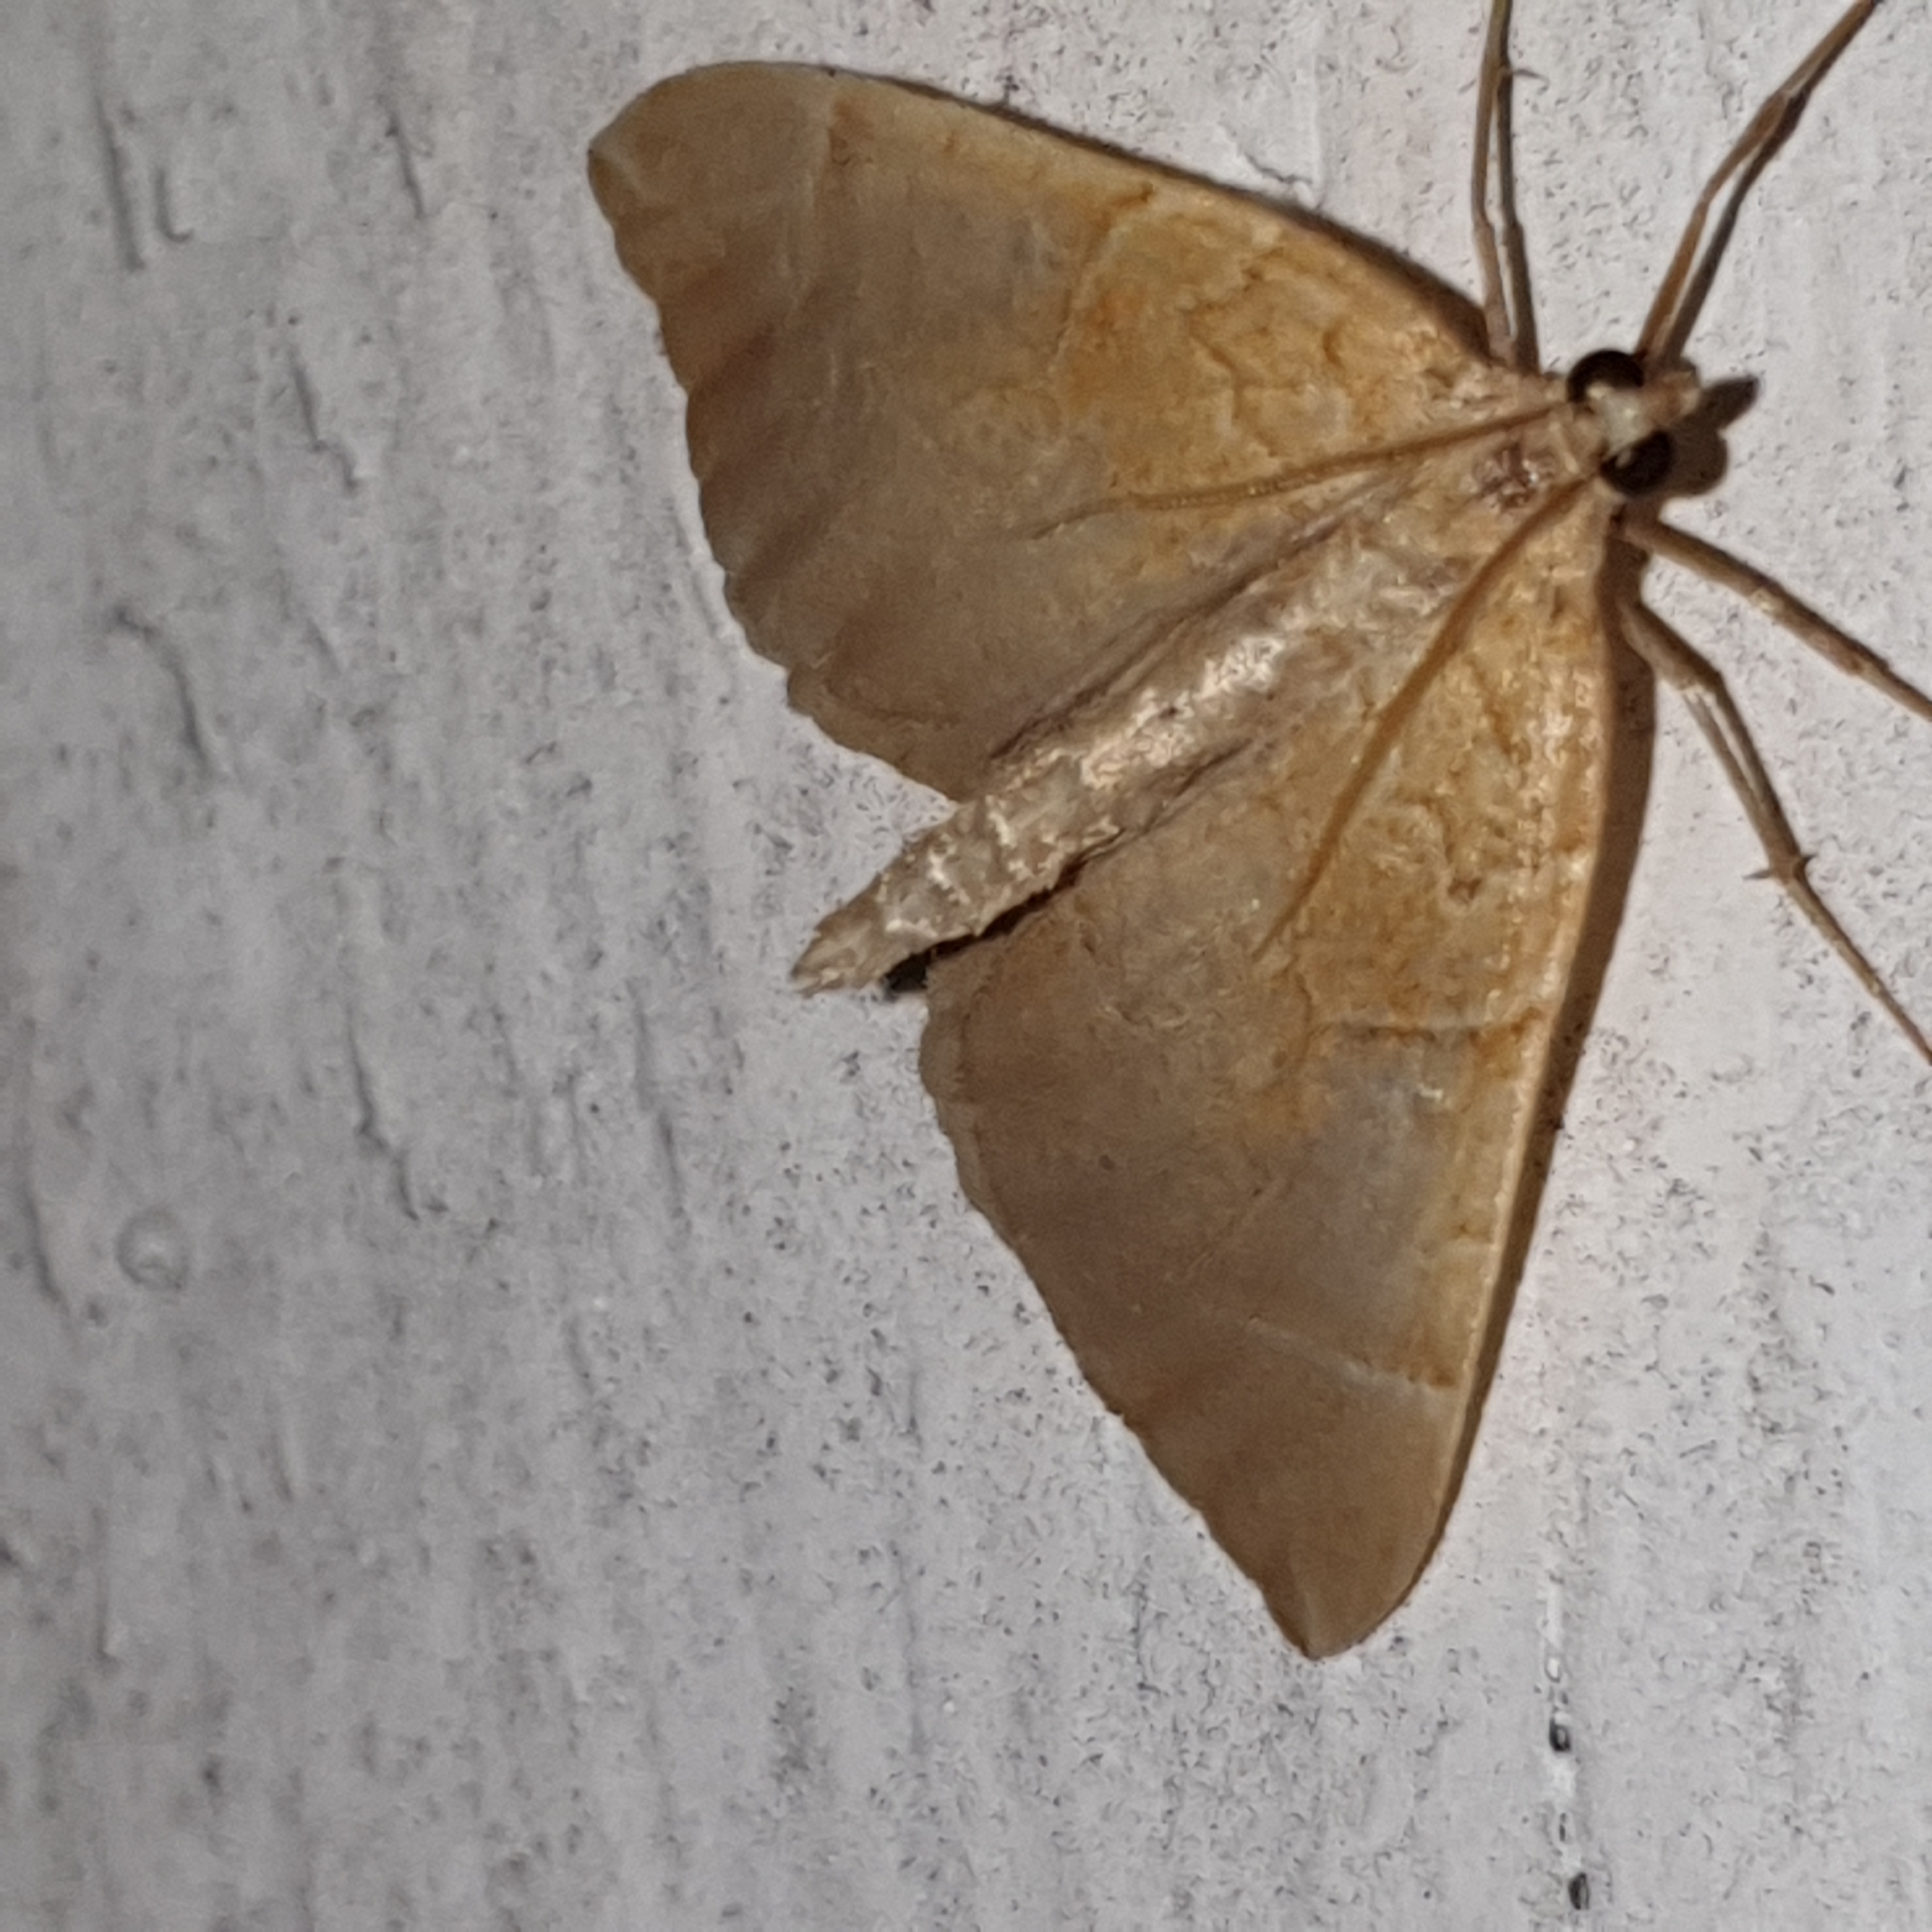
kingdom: Animalia
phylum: Arthropoda
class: Insecta
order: Lepidoptera
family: Geometridae
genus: Eulithis
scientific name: Eulithis testata
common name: Chevron
